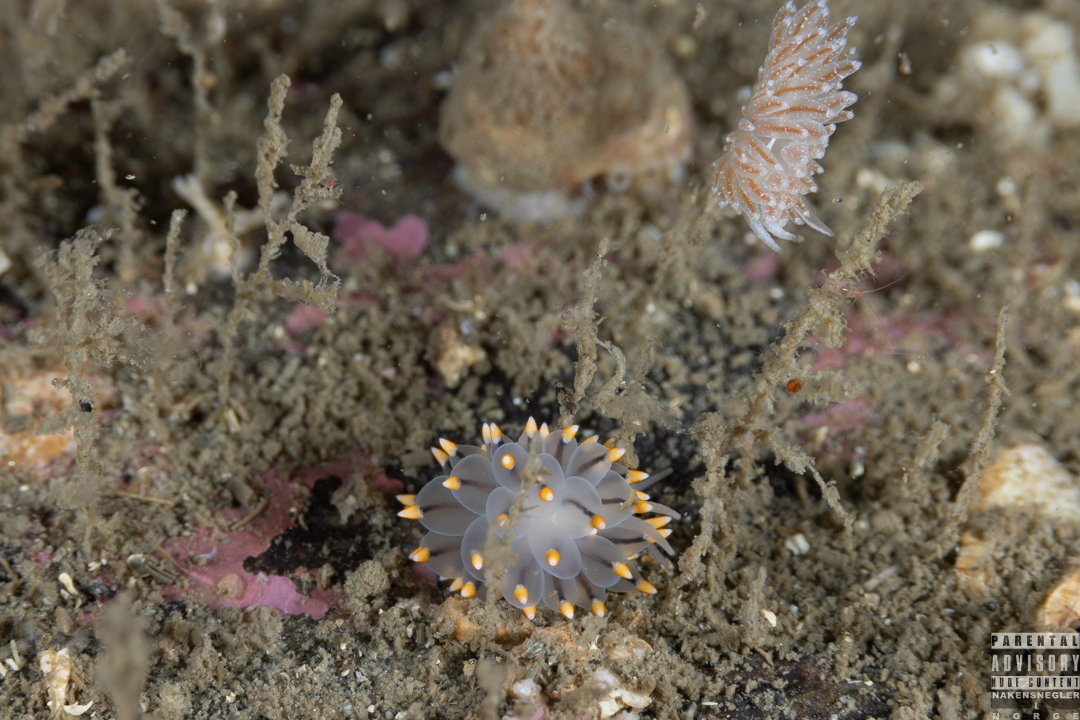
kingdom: Animalia
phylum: Mollusca
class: Gastropoda
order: Nudibranchia
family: Eubranchidae
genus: Eubranchus
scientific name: Eubranchus tricolor
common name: Painted balloon aeolis
